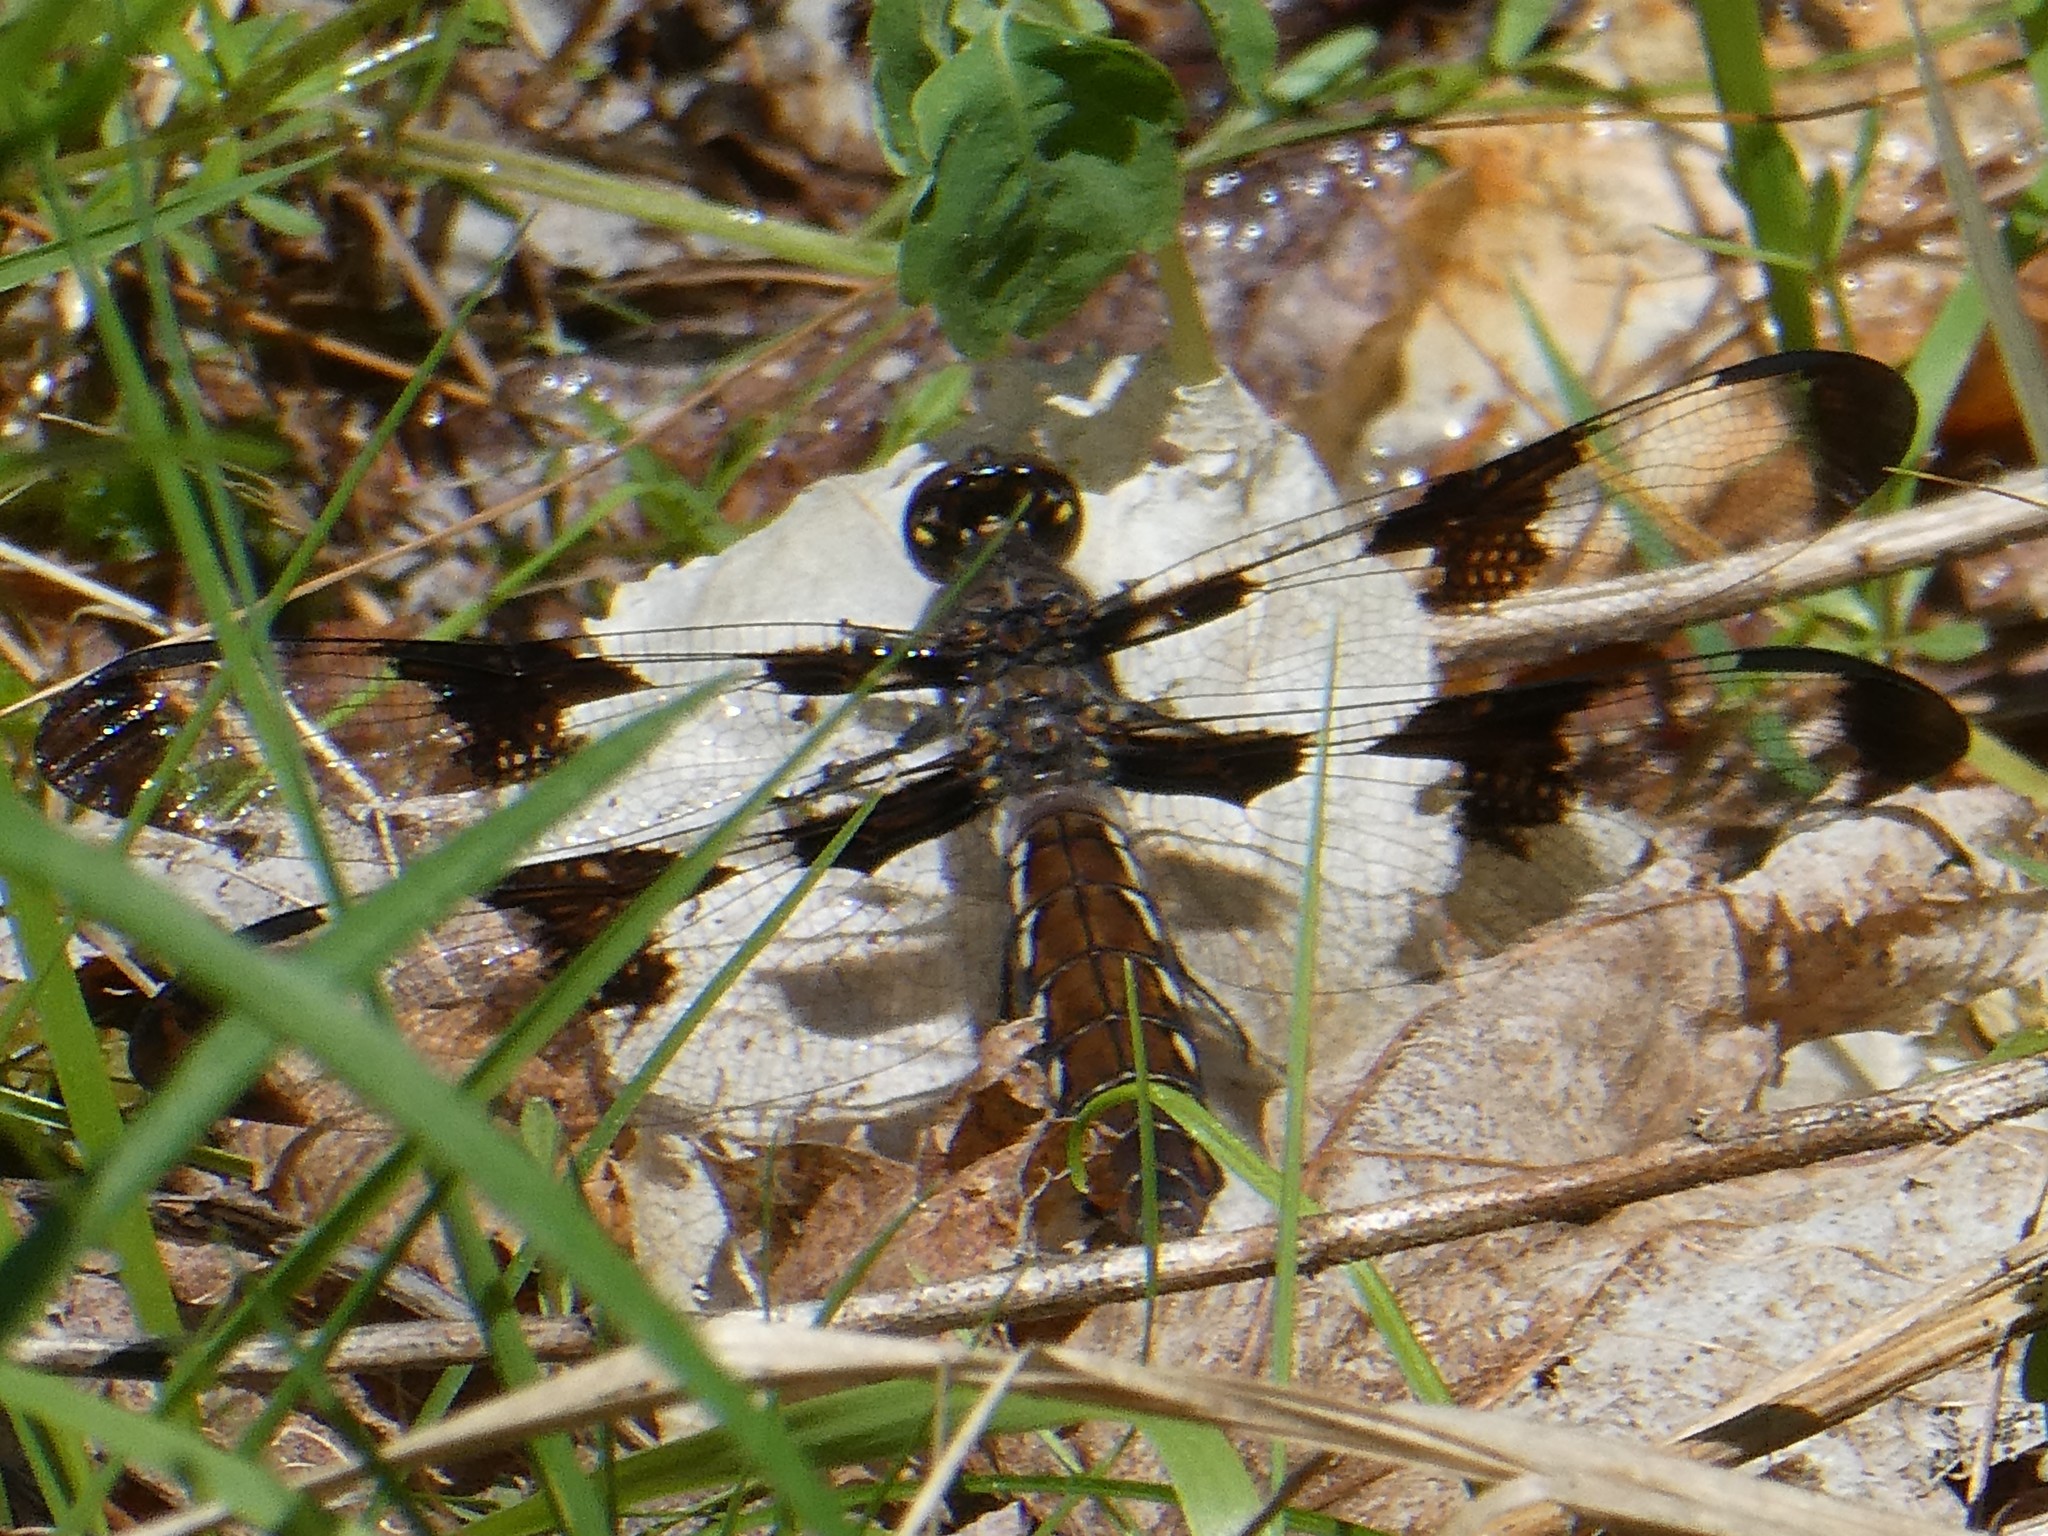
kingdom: Animalia
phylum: Arthropoda
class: Insecta
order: Odonata
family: Libellulidae
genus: Plathemis
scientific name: Plathemis lydia
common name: Common whitetail
